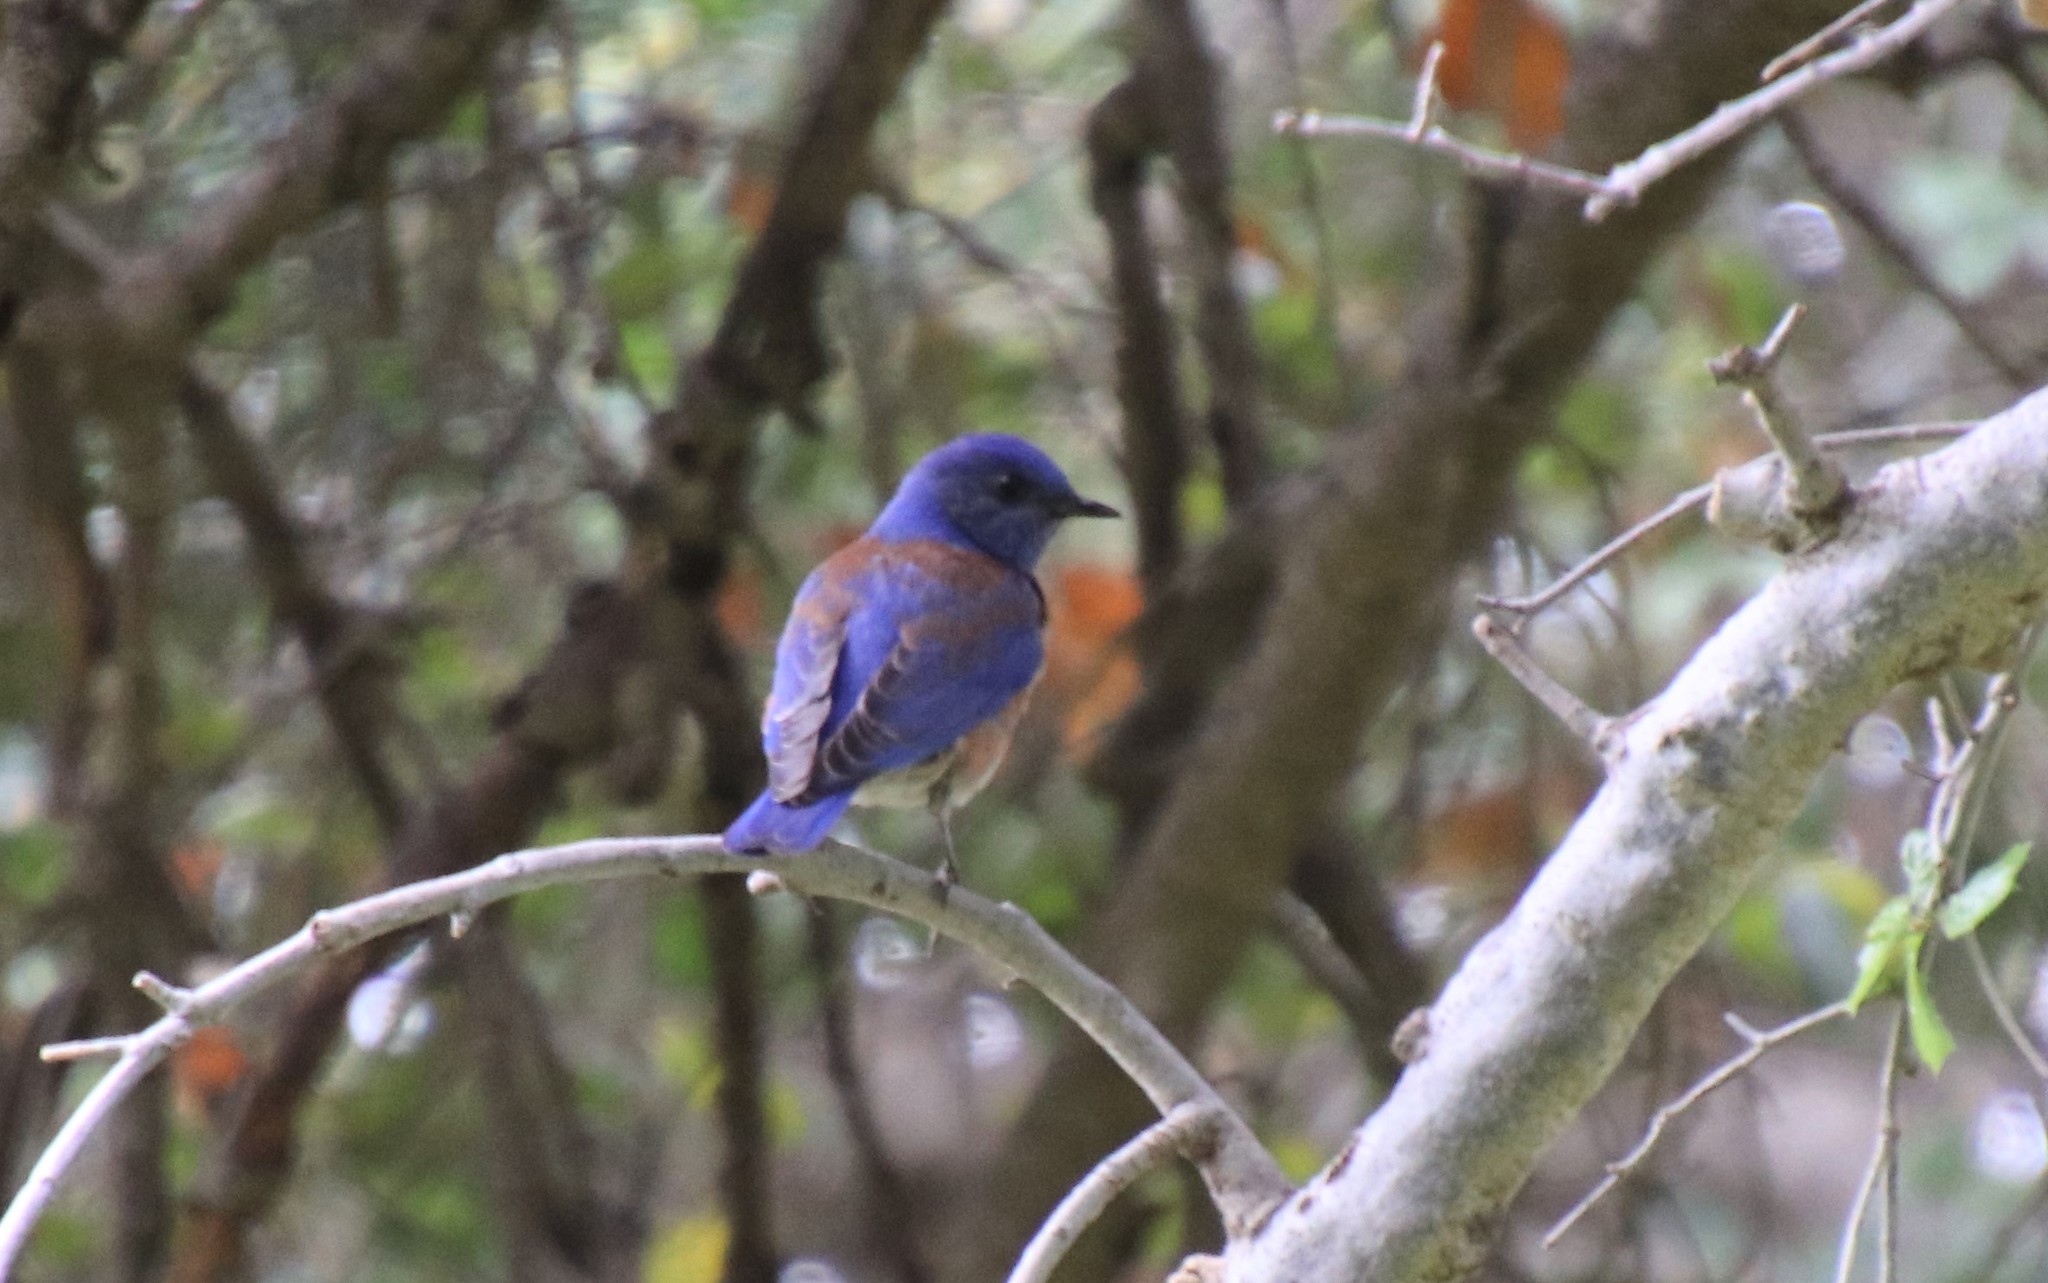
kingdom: Animalia
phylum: Chordata
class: Aves
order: Passeriformes
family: Turdidae
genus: Sialia
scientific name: Sialia mexicana
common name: Western bluebird
